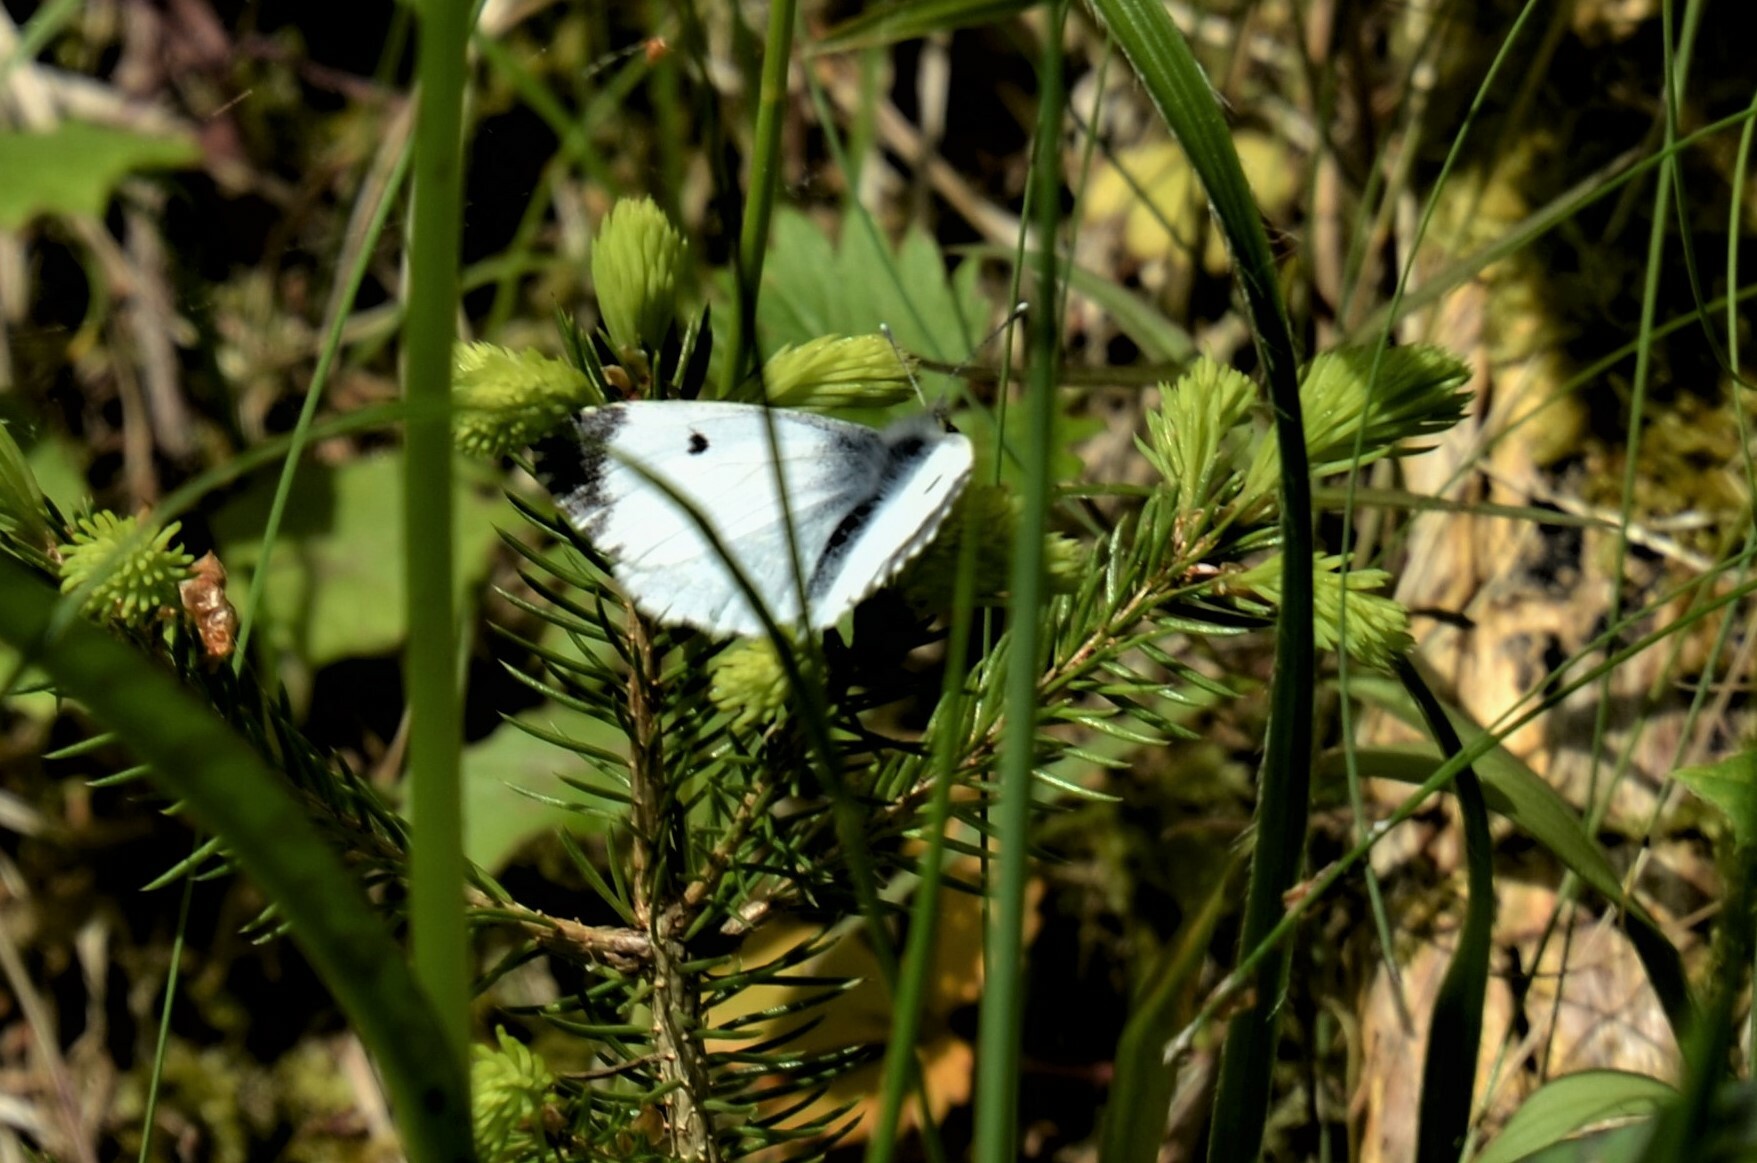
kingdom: Animalia
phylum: Arthropoda
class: Insecta
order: Lepidoptera
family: Pieridae
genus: Anthocharis
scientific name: Anthocharis cardamines
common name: Orange-tip
